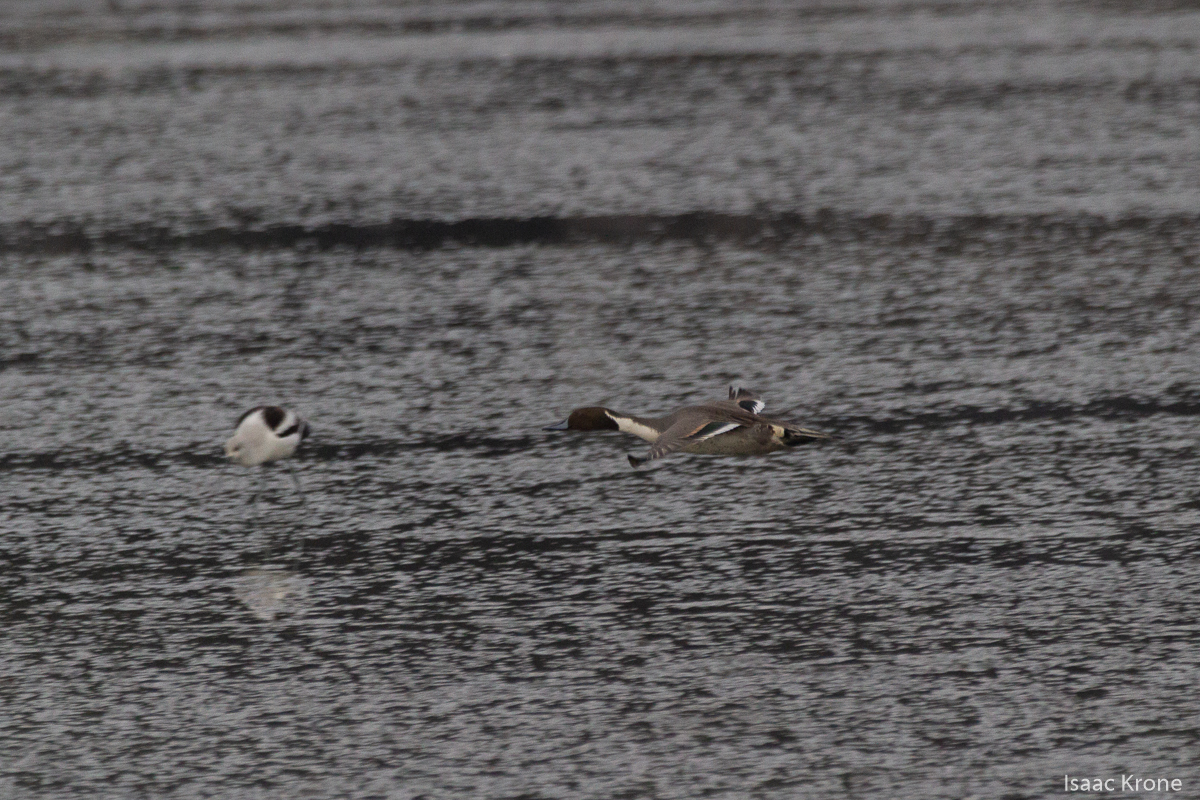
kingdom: Animalia
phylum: Chordata
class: Aves
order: Anseriformes
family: Anatidae
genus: Anas
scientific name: Anas acuta
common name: Northern pintail
